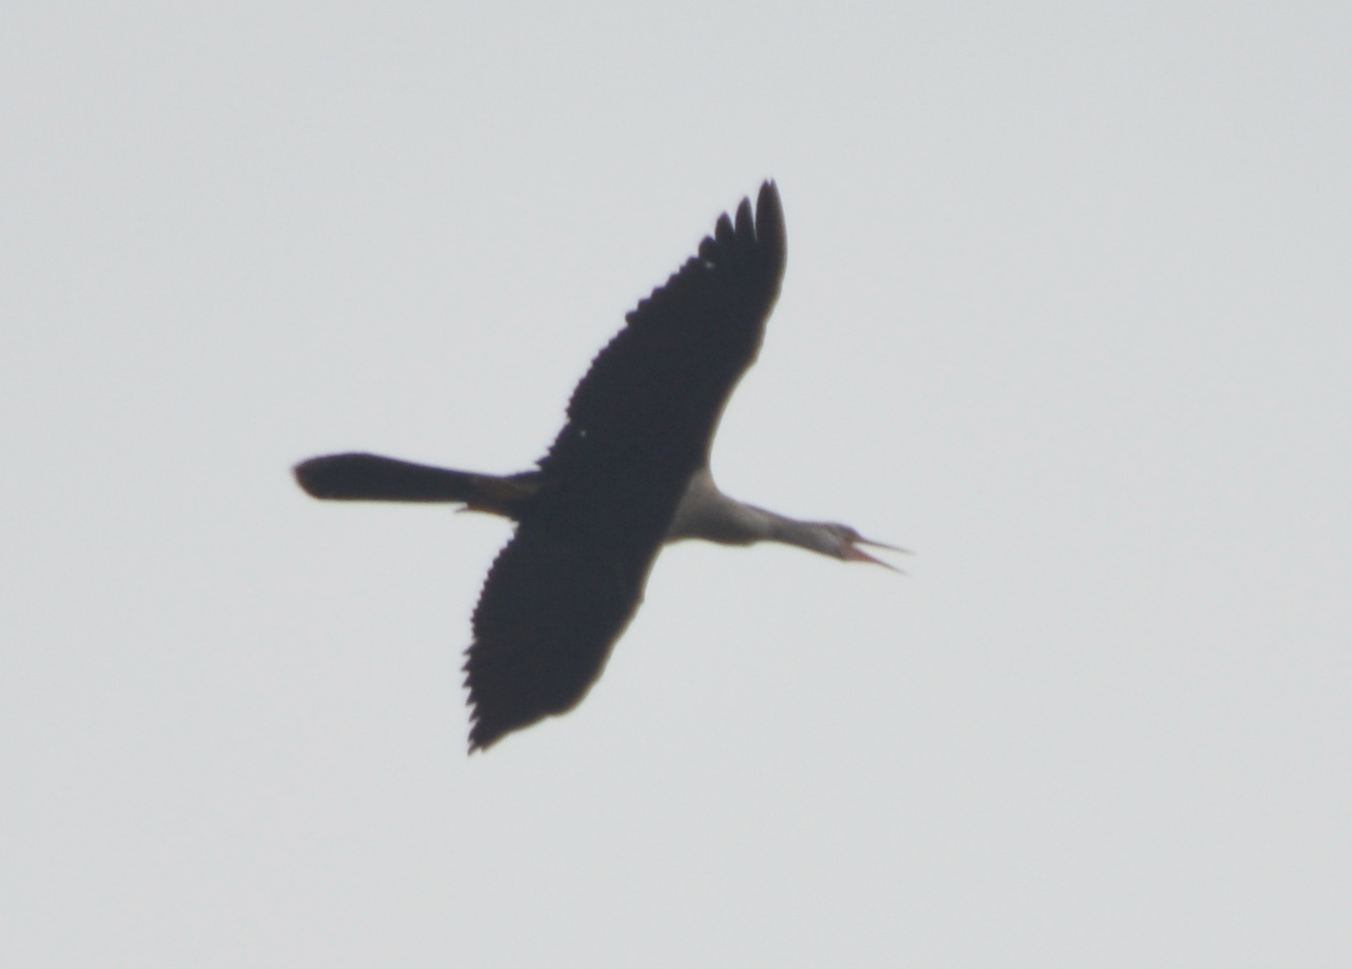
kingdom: Animalia
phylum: Chordata
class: Aves
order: Suliformes
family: Anhingidae
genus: Anhinga
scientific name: Anhinga anhinga
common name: Anhinga
